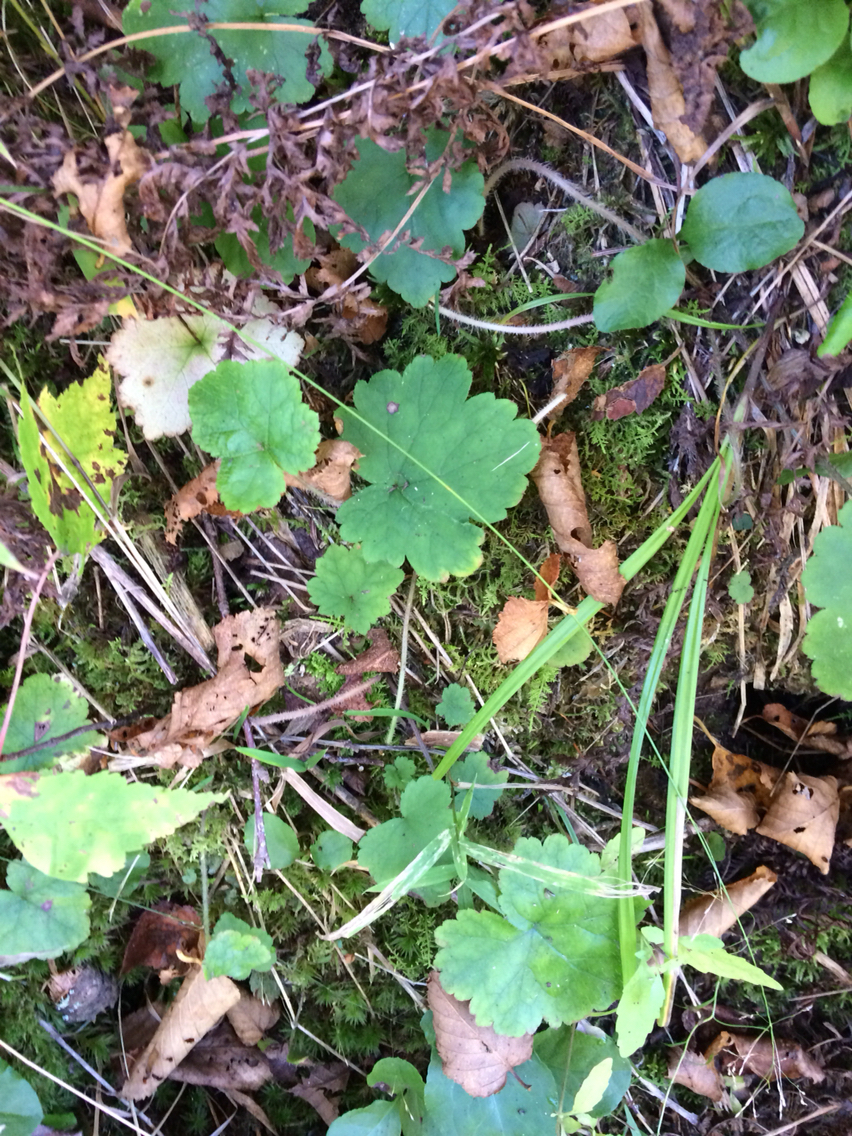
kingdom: Plantae
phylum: Tracheophyta
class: Magnoliopsida
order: Saxifragales
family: Saxifragaceae
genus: Tiarella
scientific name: Tiarella stolonifera
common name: Stoloniferous foamflower
